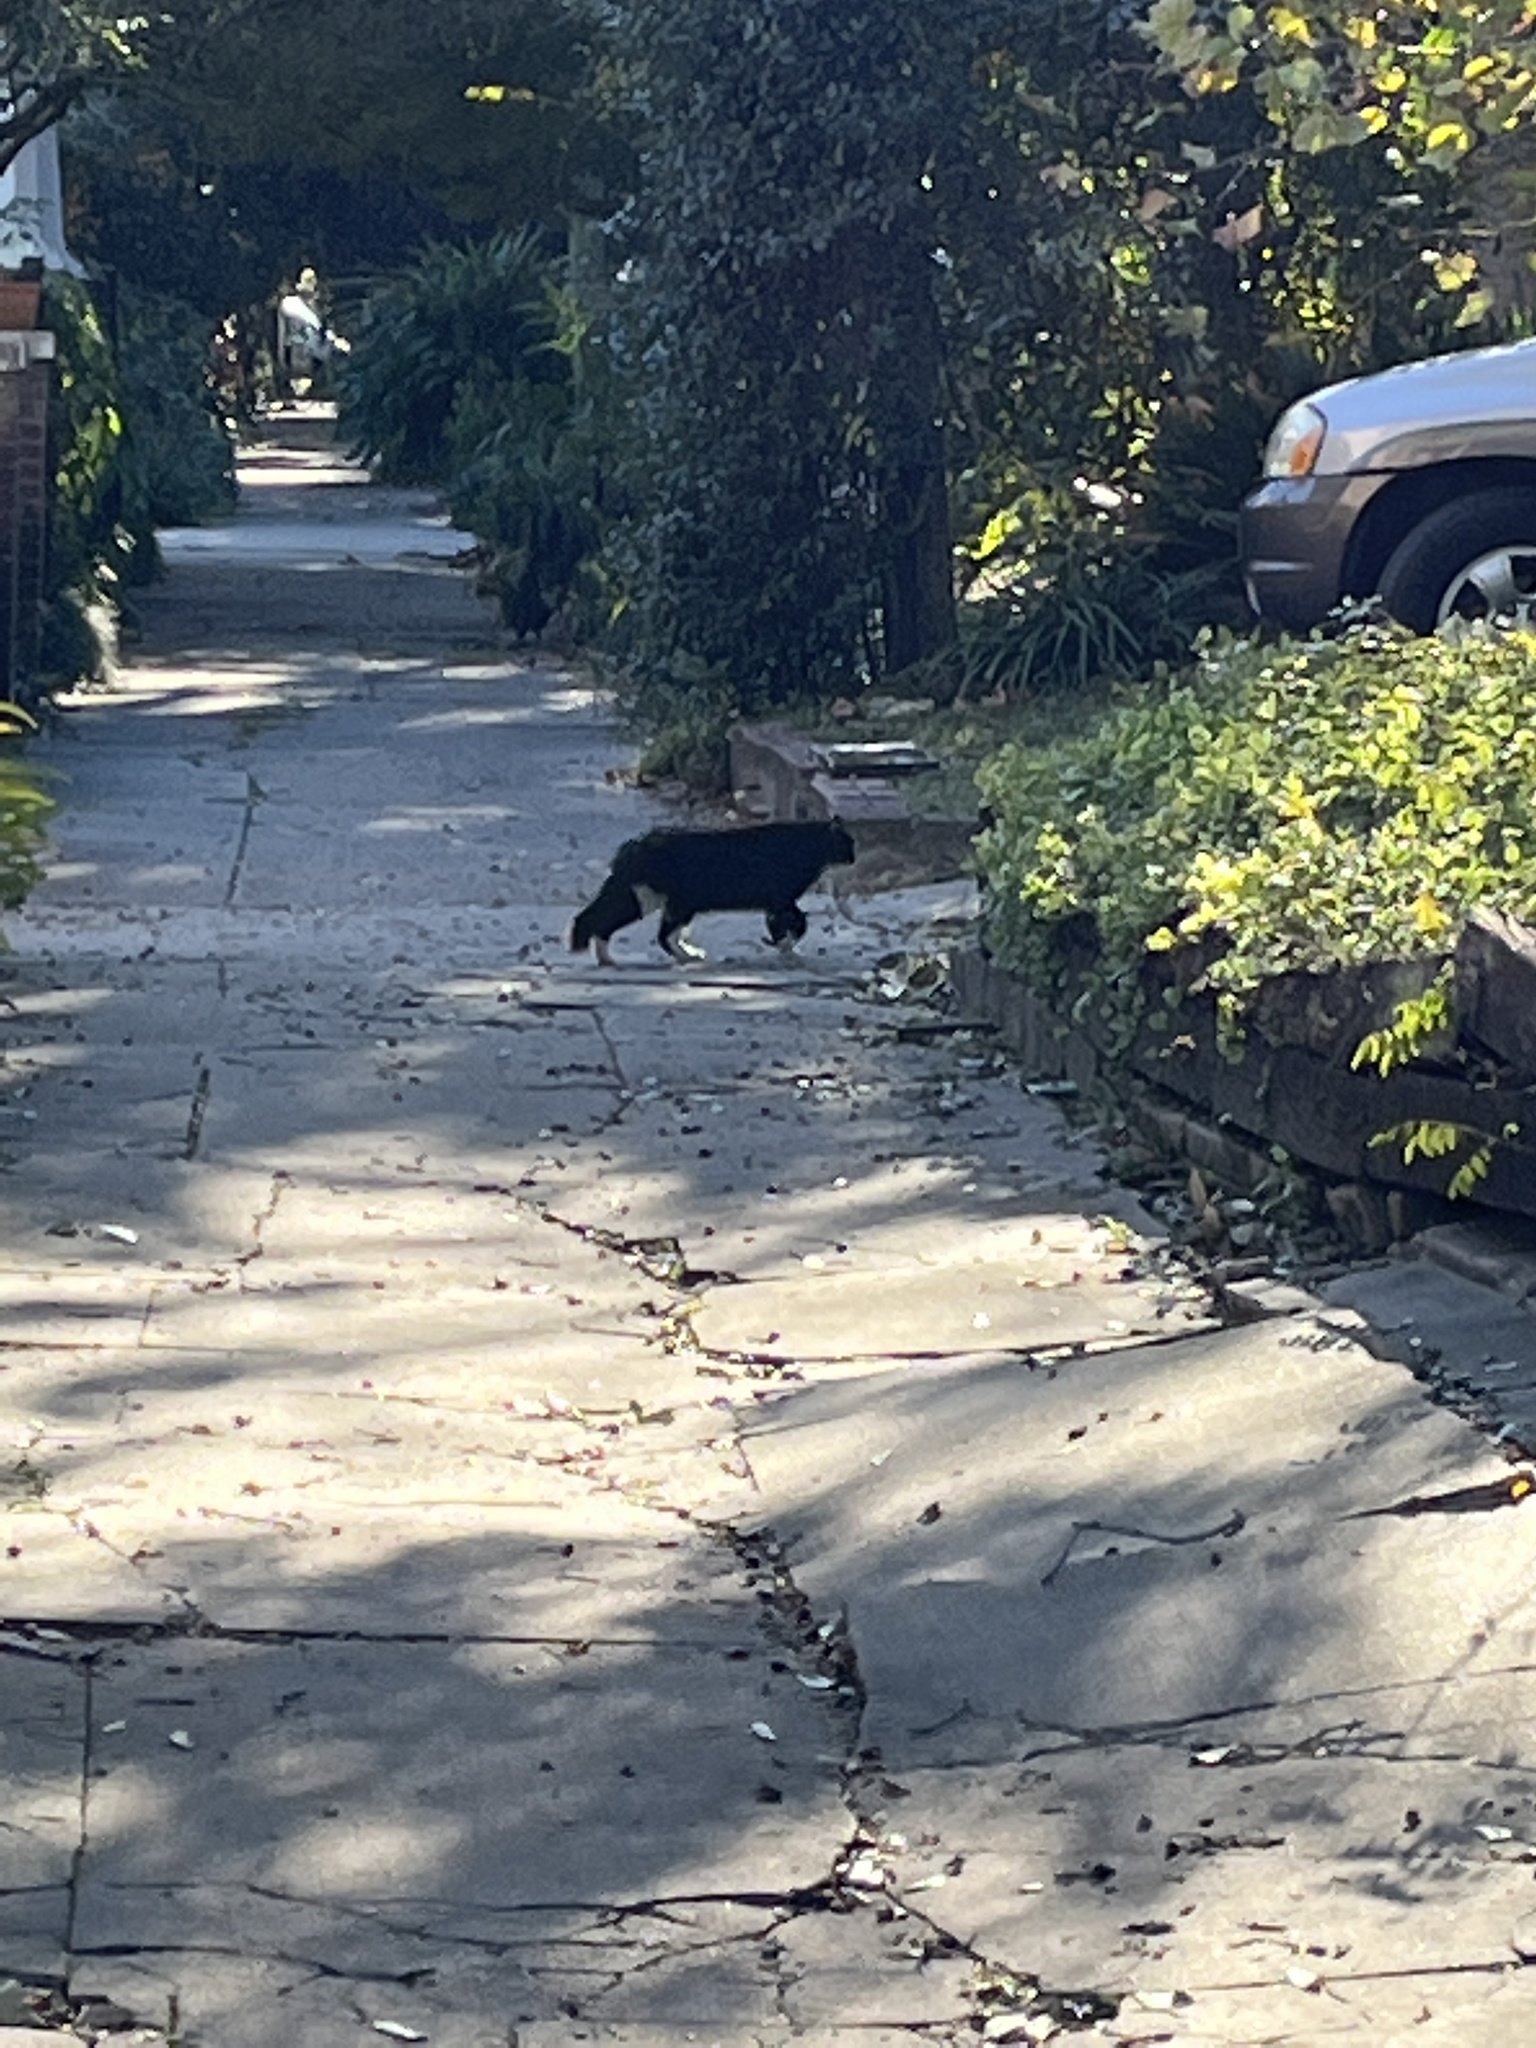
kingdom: Animalia
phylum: Chordata
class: Mammalia
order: Carnivora
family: Felidae
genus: Felis
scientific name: Felis catus
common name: Domestic cat
